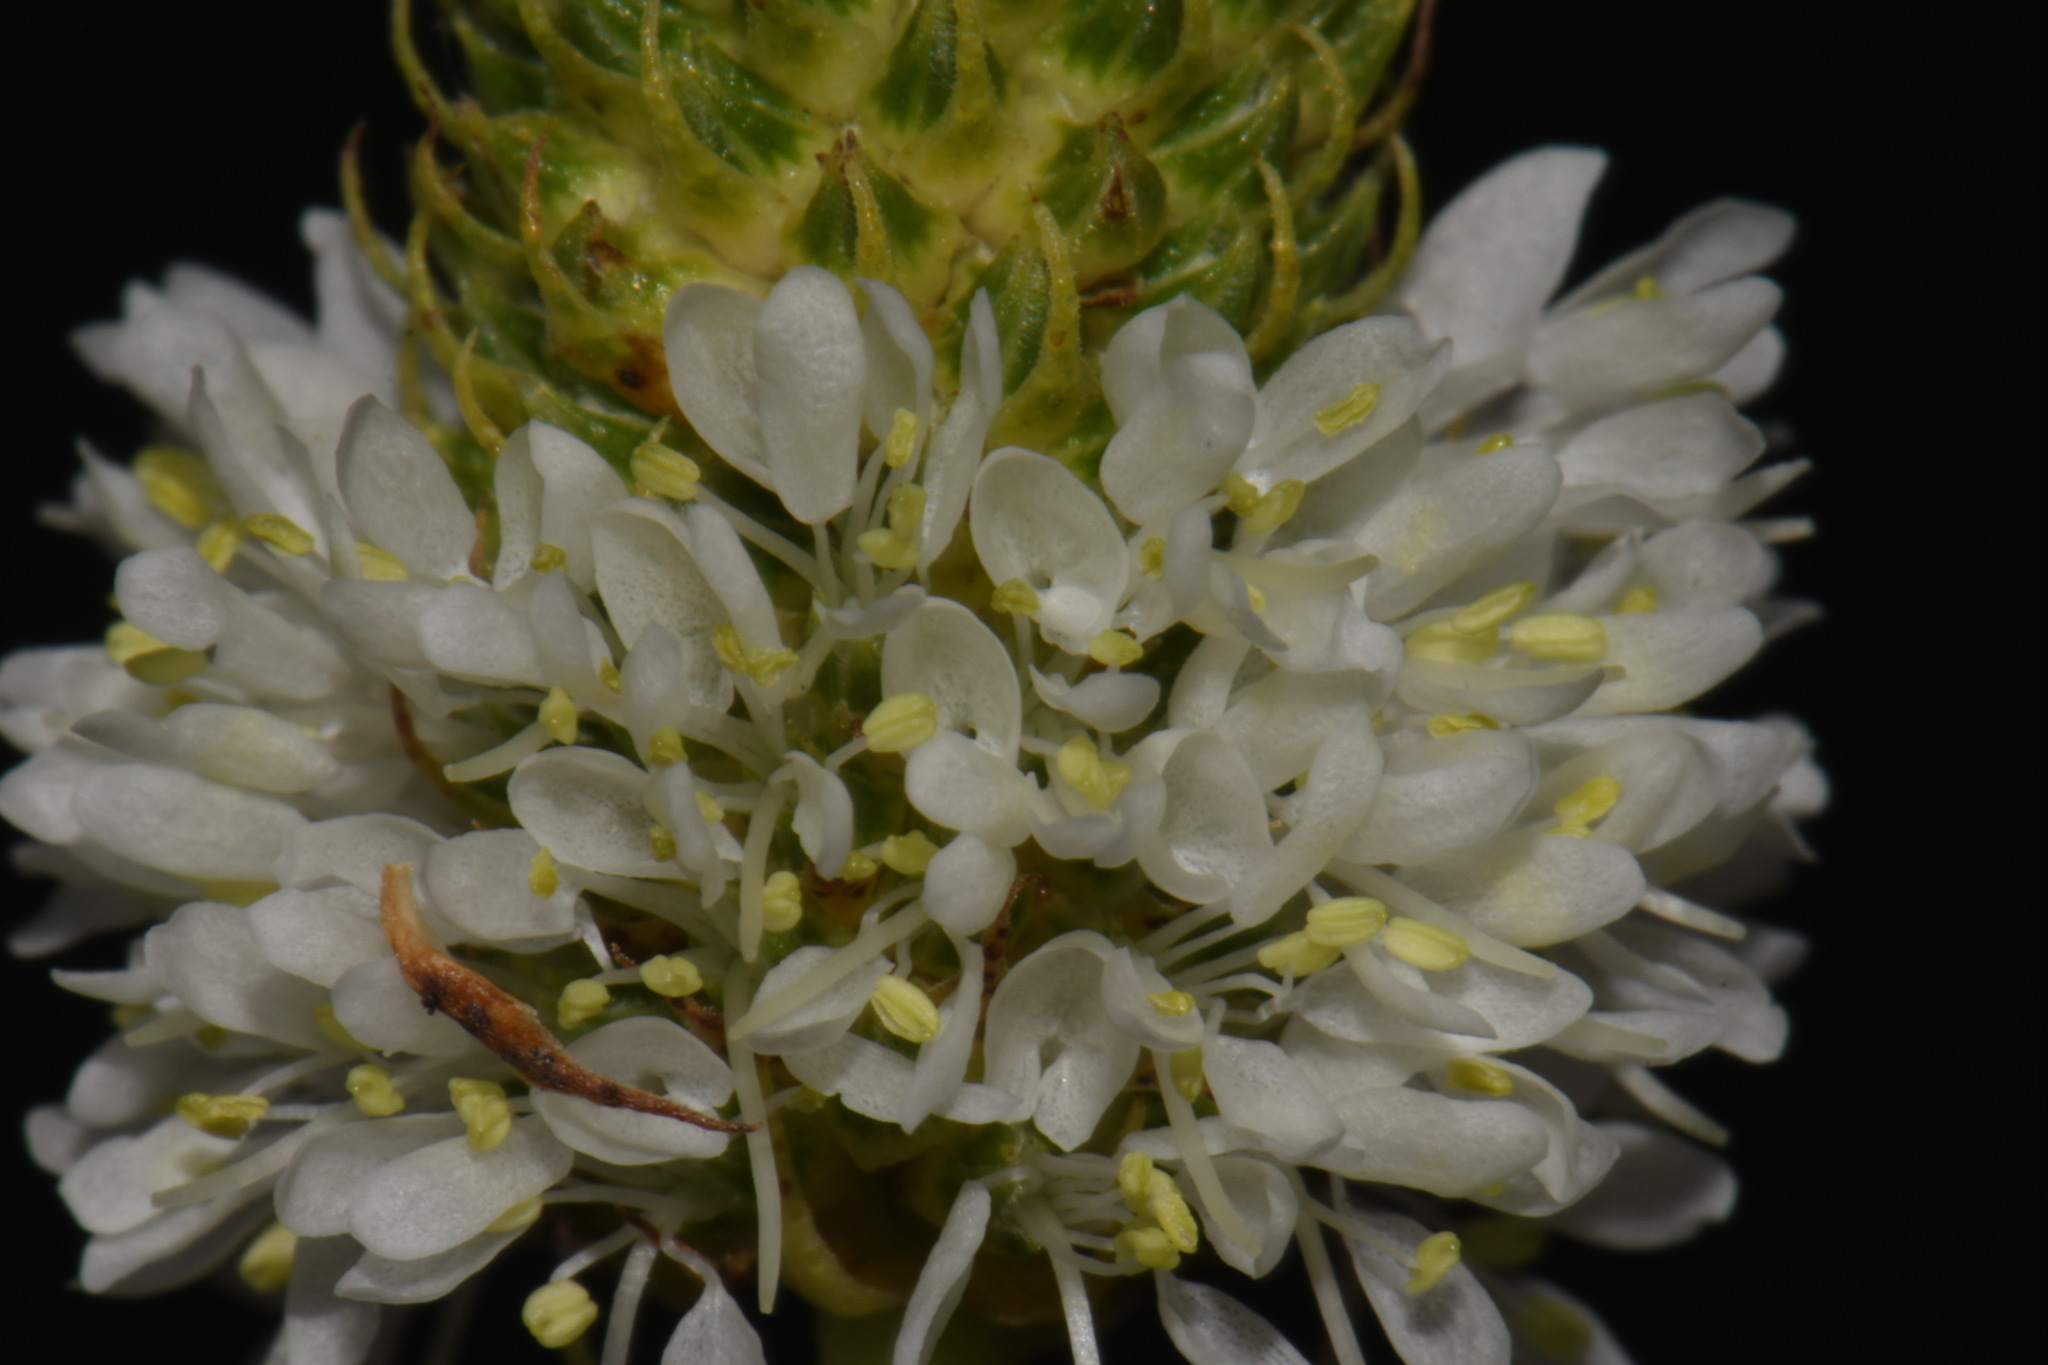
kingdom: Plantae
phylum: Tracheophyta
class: Magnoliopsida
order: Fabales
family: Fabaceae
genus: Dalea
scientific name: Dalea candida
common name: White prairie-clover
